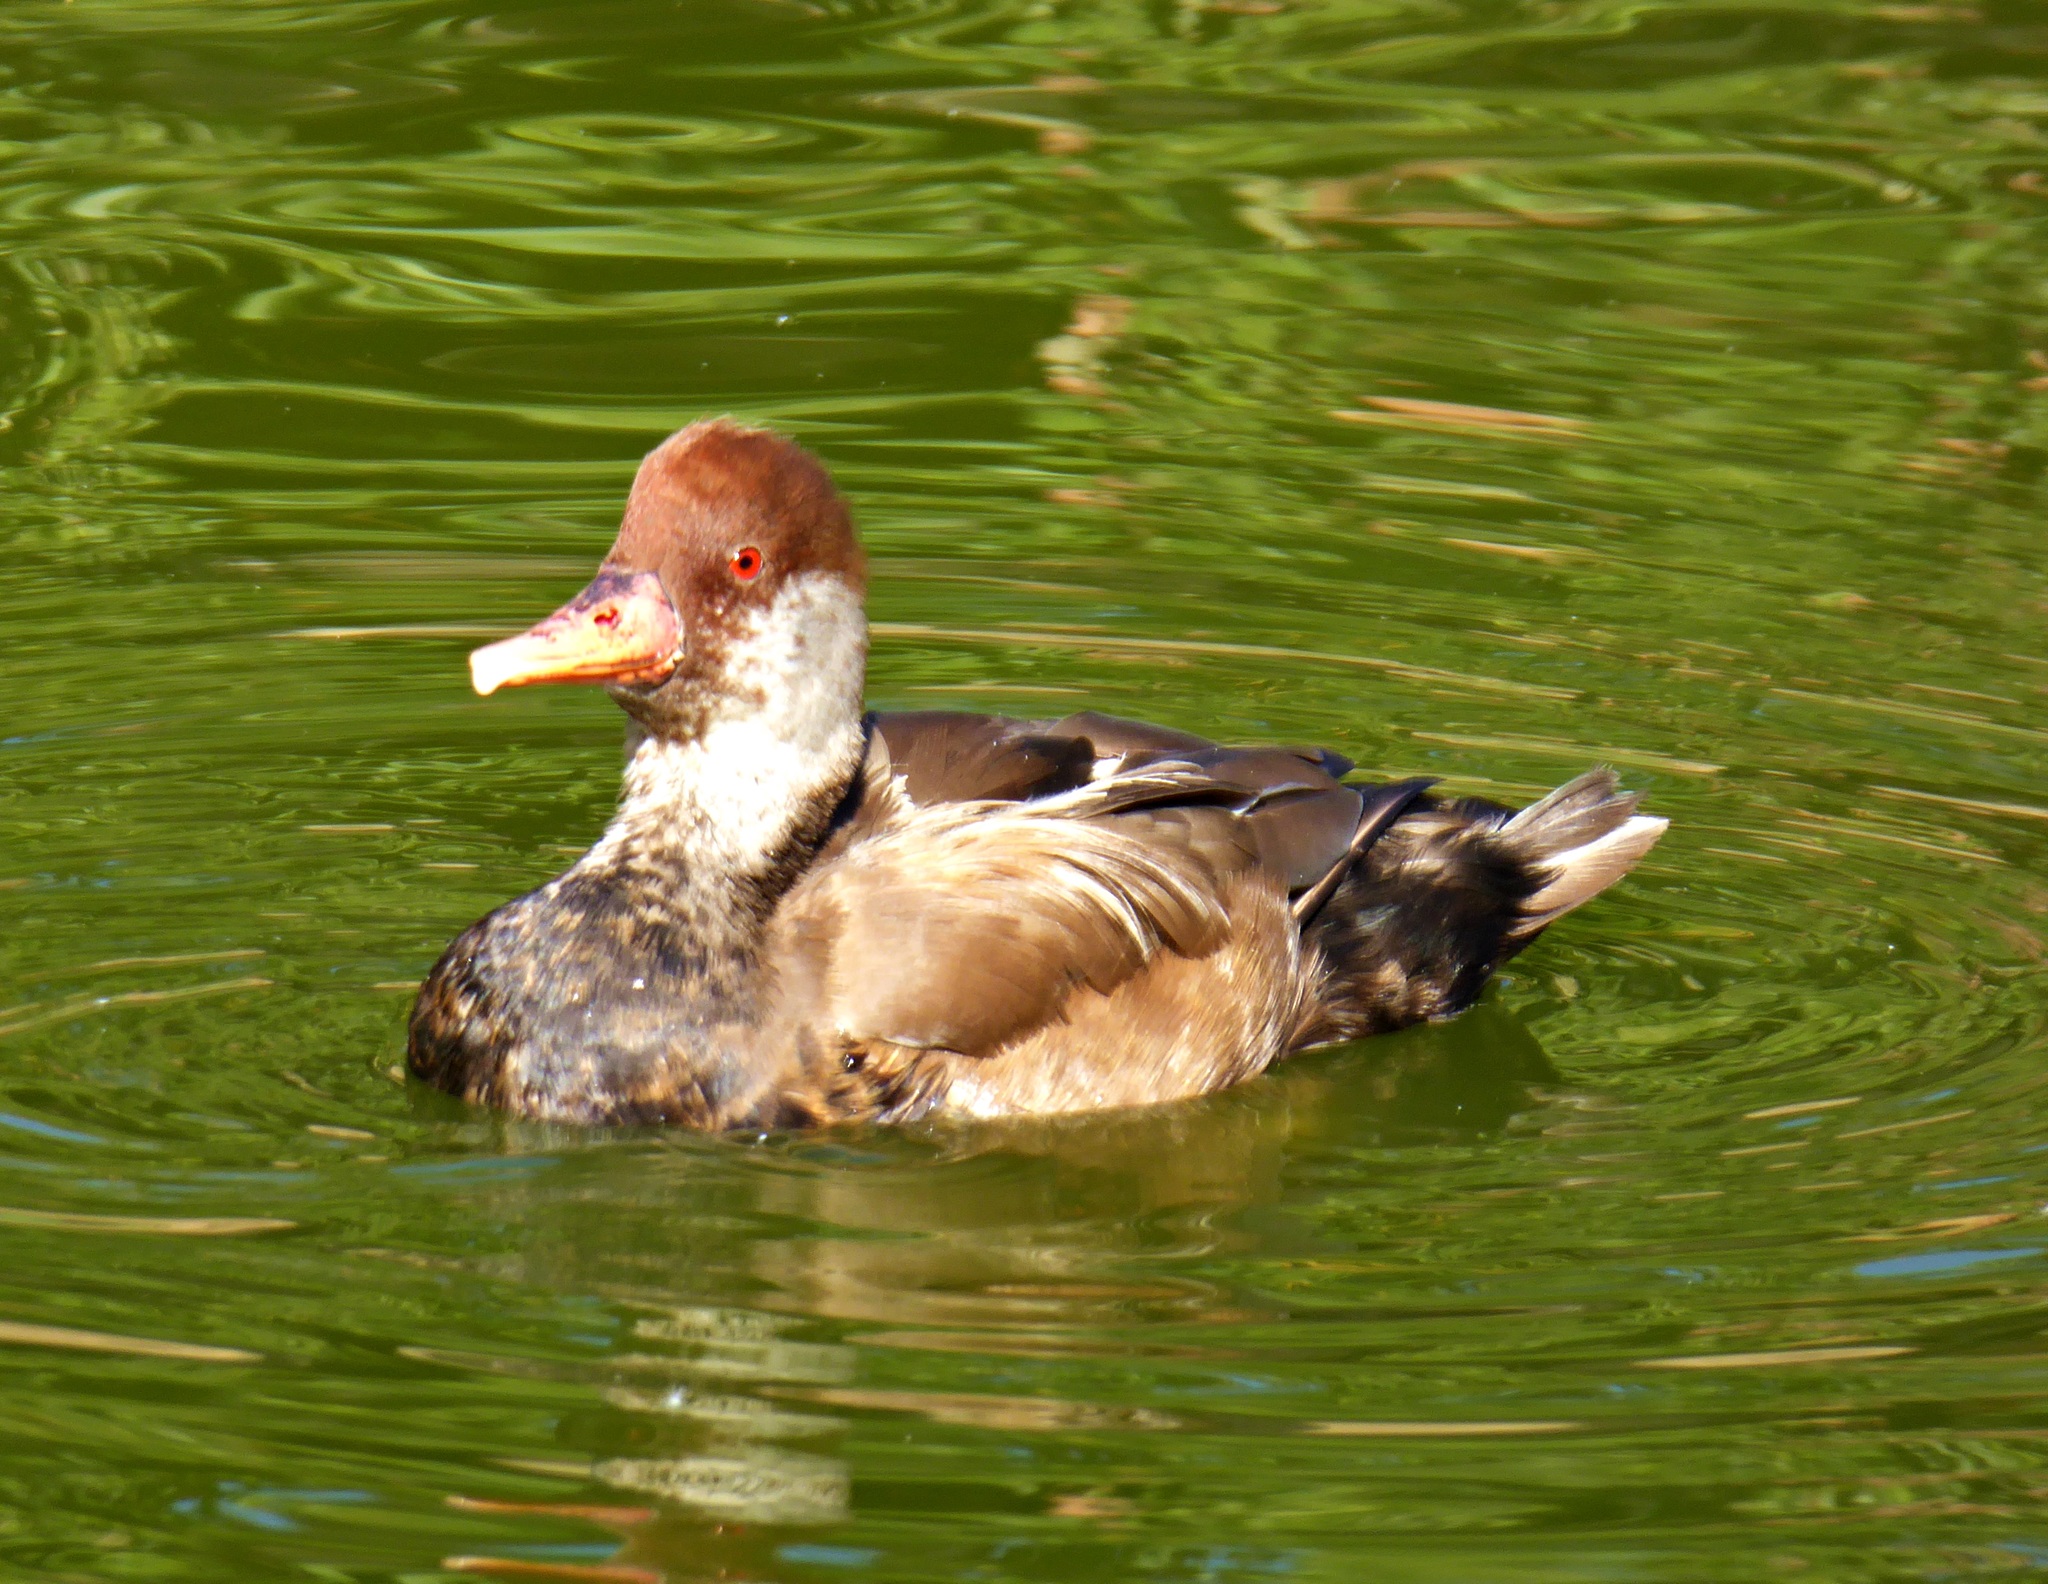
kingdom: Animalia
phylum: Chordata
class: Aves
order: Anseriformes
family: Anatidae
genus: Netta
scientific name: Netta rufina
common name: Red-crested pochard
